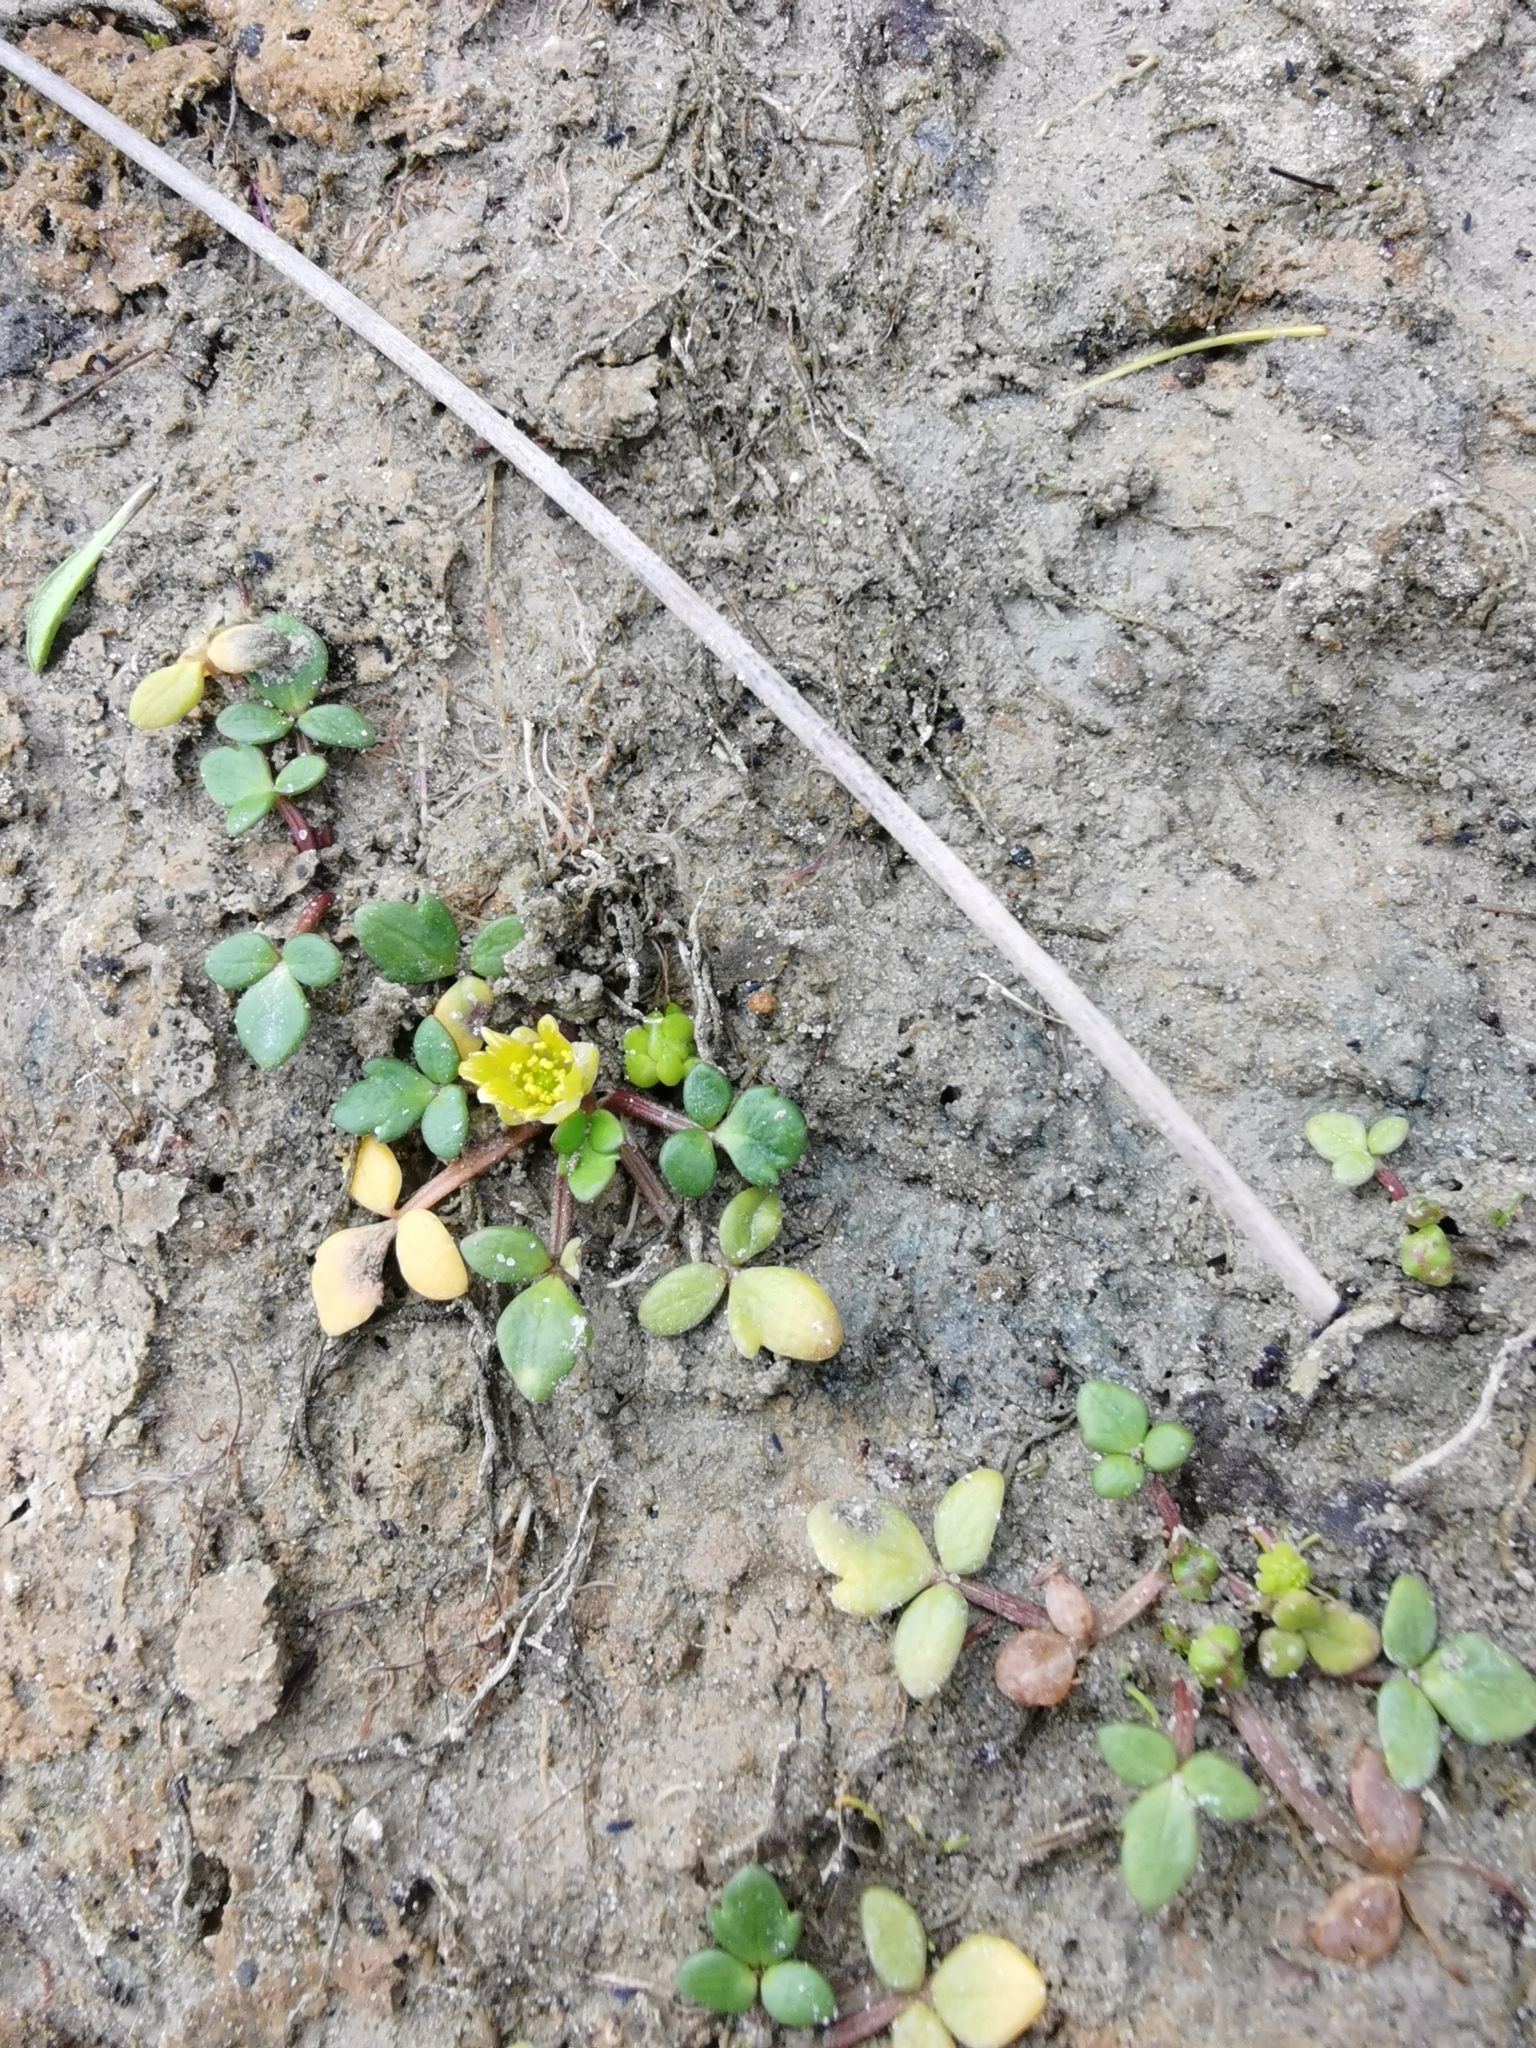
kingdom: Plantae
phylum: Tracheophyta
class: Magnoliopsida
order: Ranunculales
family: Ranunculaceae
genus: Ranunculus
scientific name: Ranunculus acaulis
